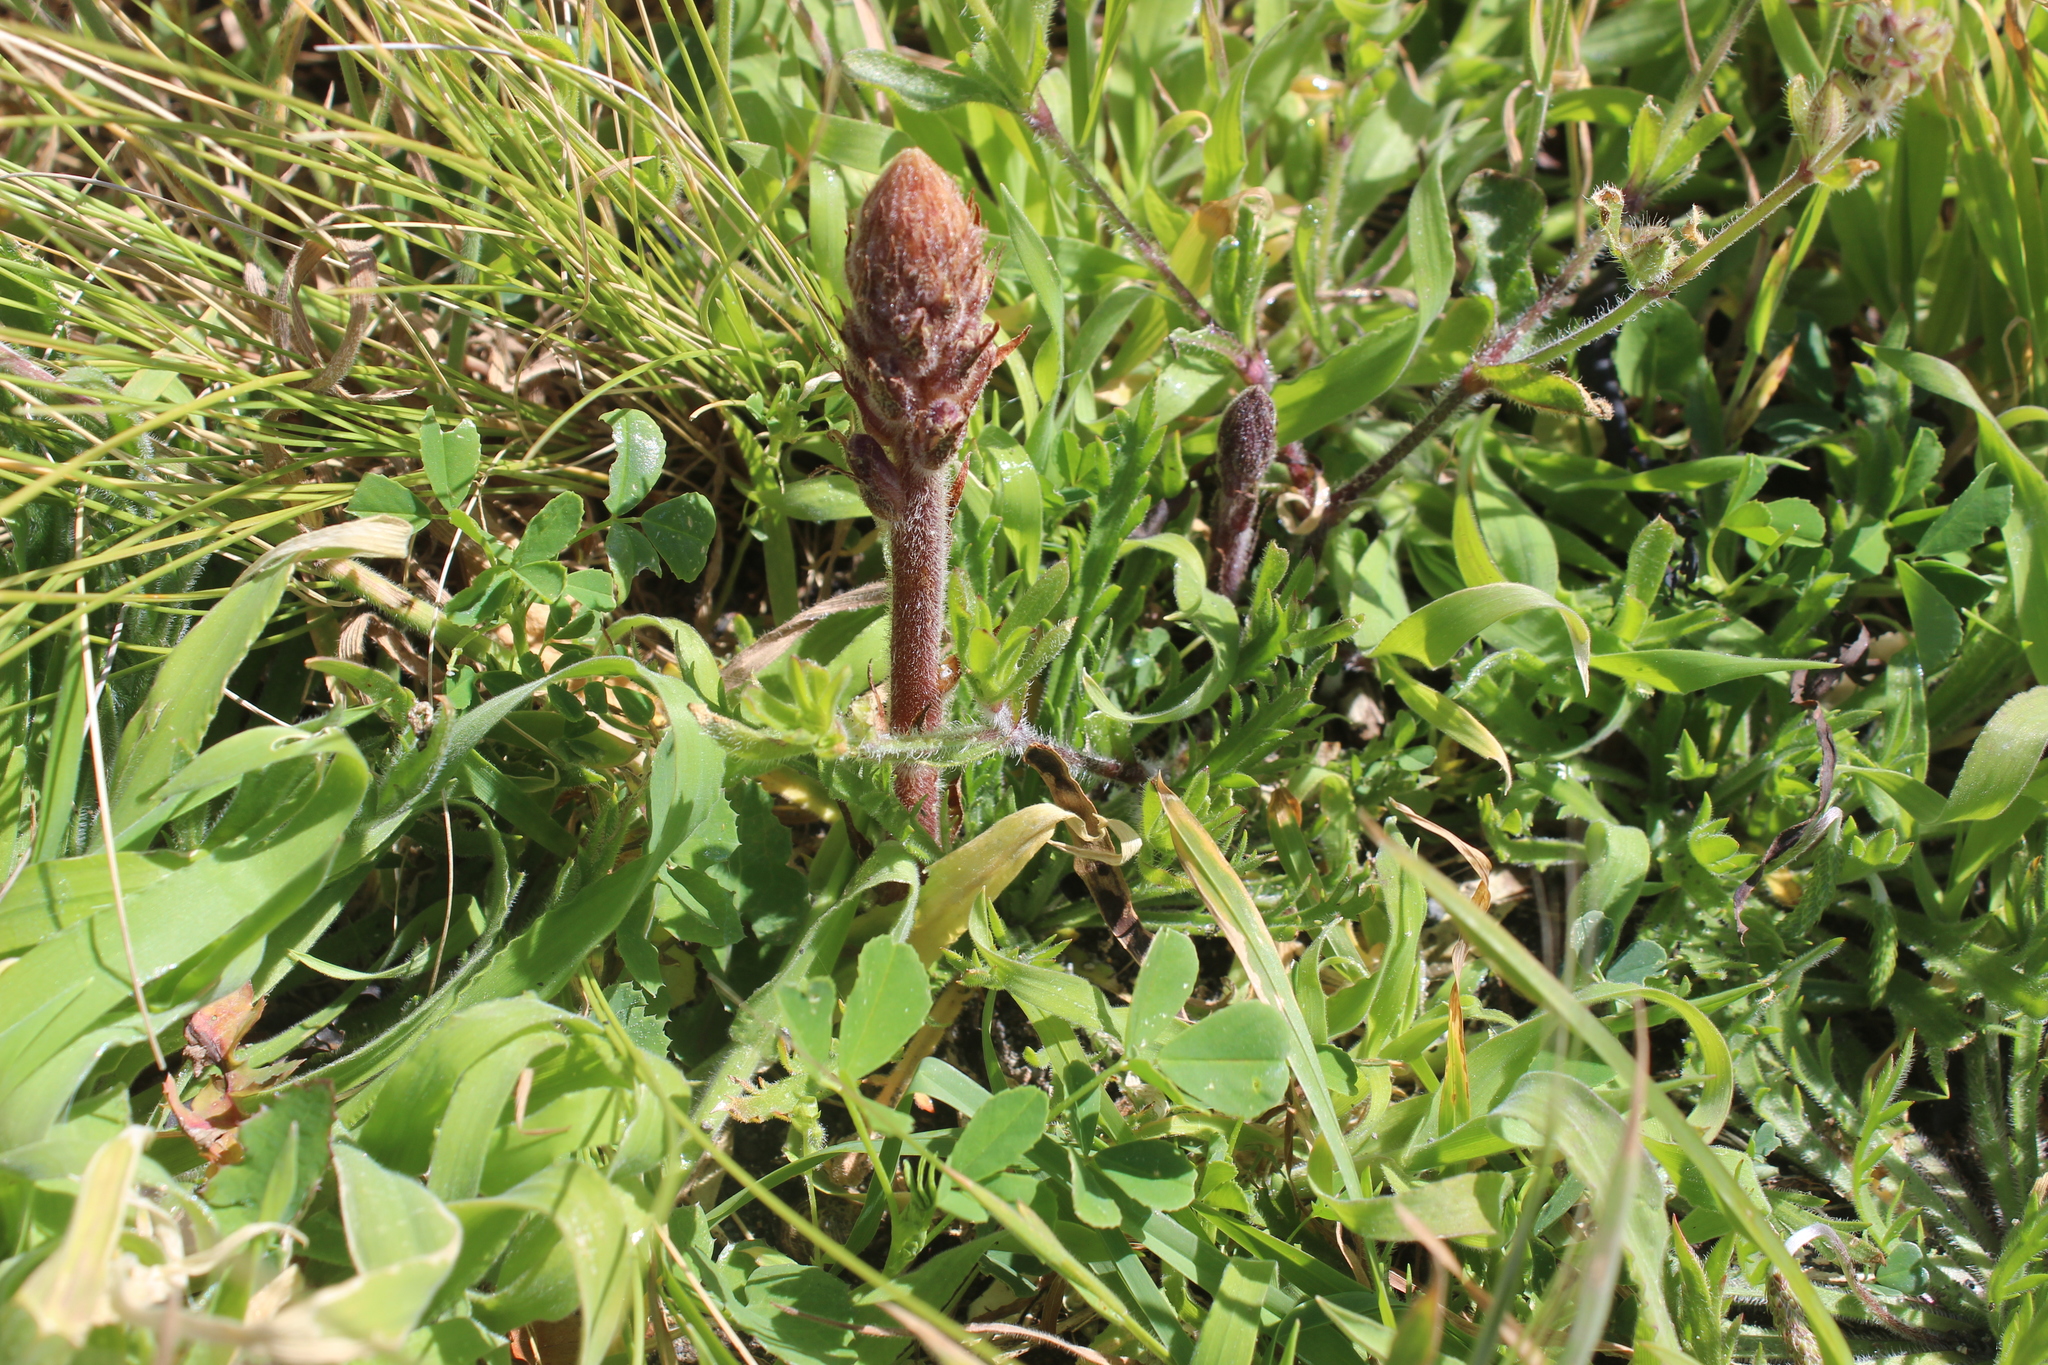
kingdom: Plantae
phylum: Tracheophyta
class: Magnoliopsida
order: Lamiales
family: Orobanchaceae
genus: Orobanche
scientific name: Orobanche minor
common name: Common broomrape
